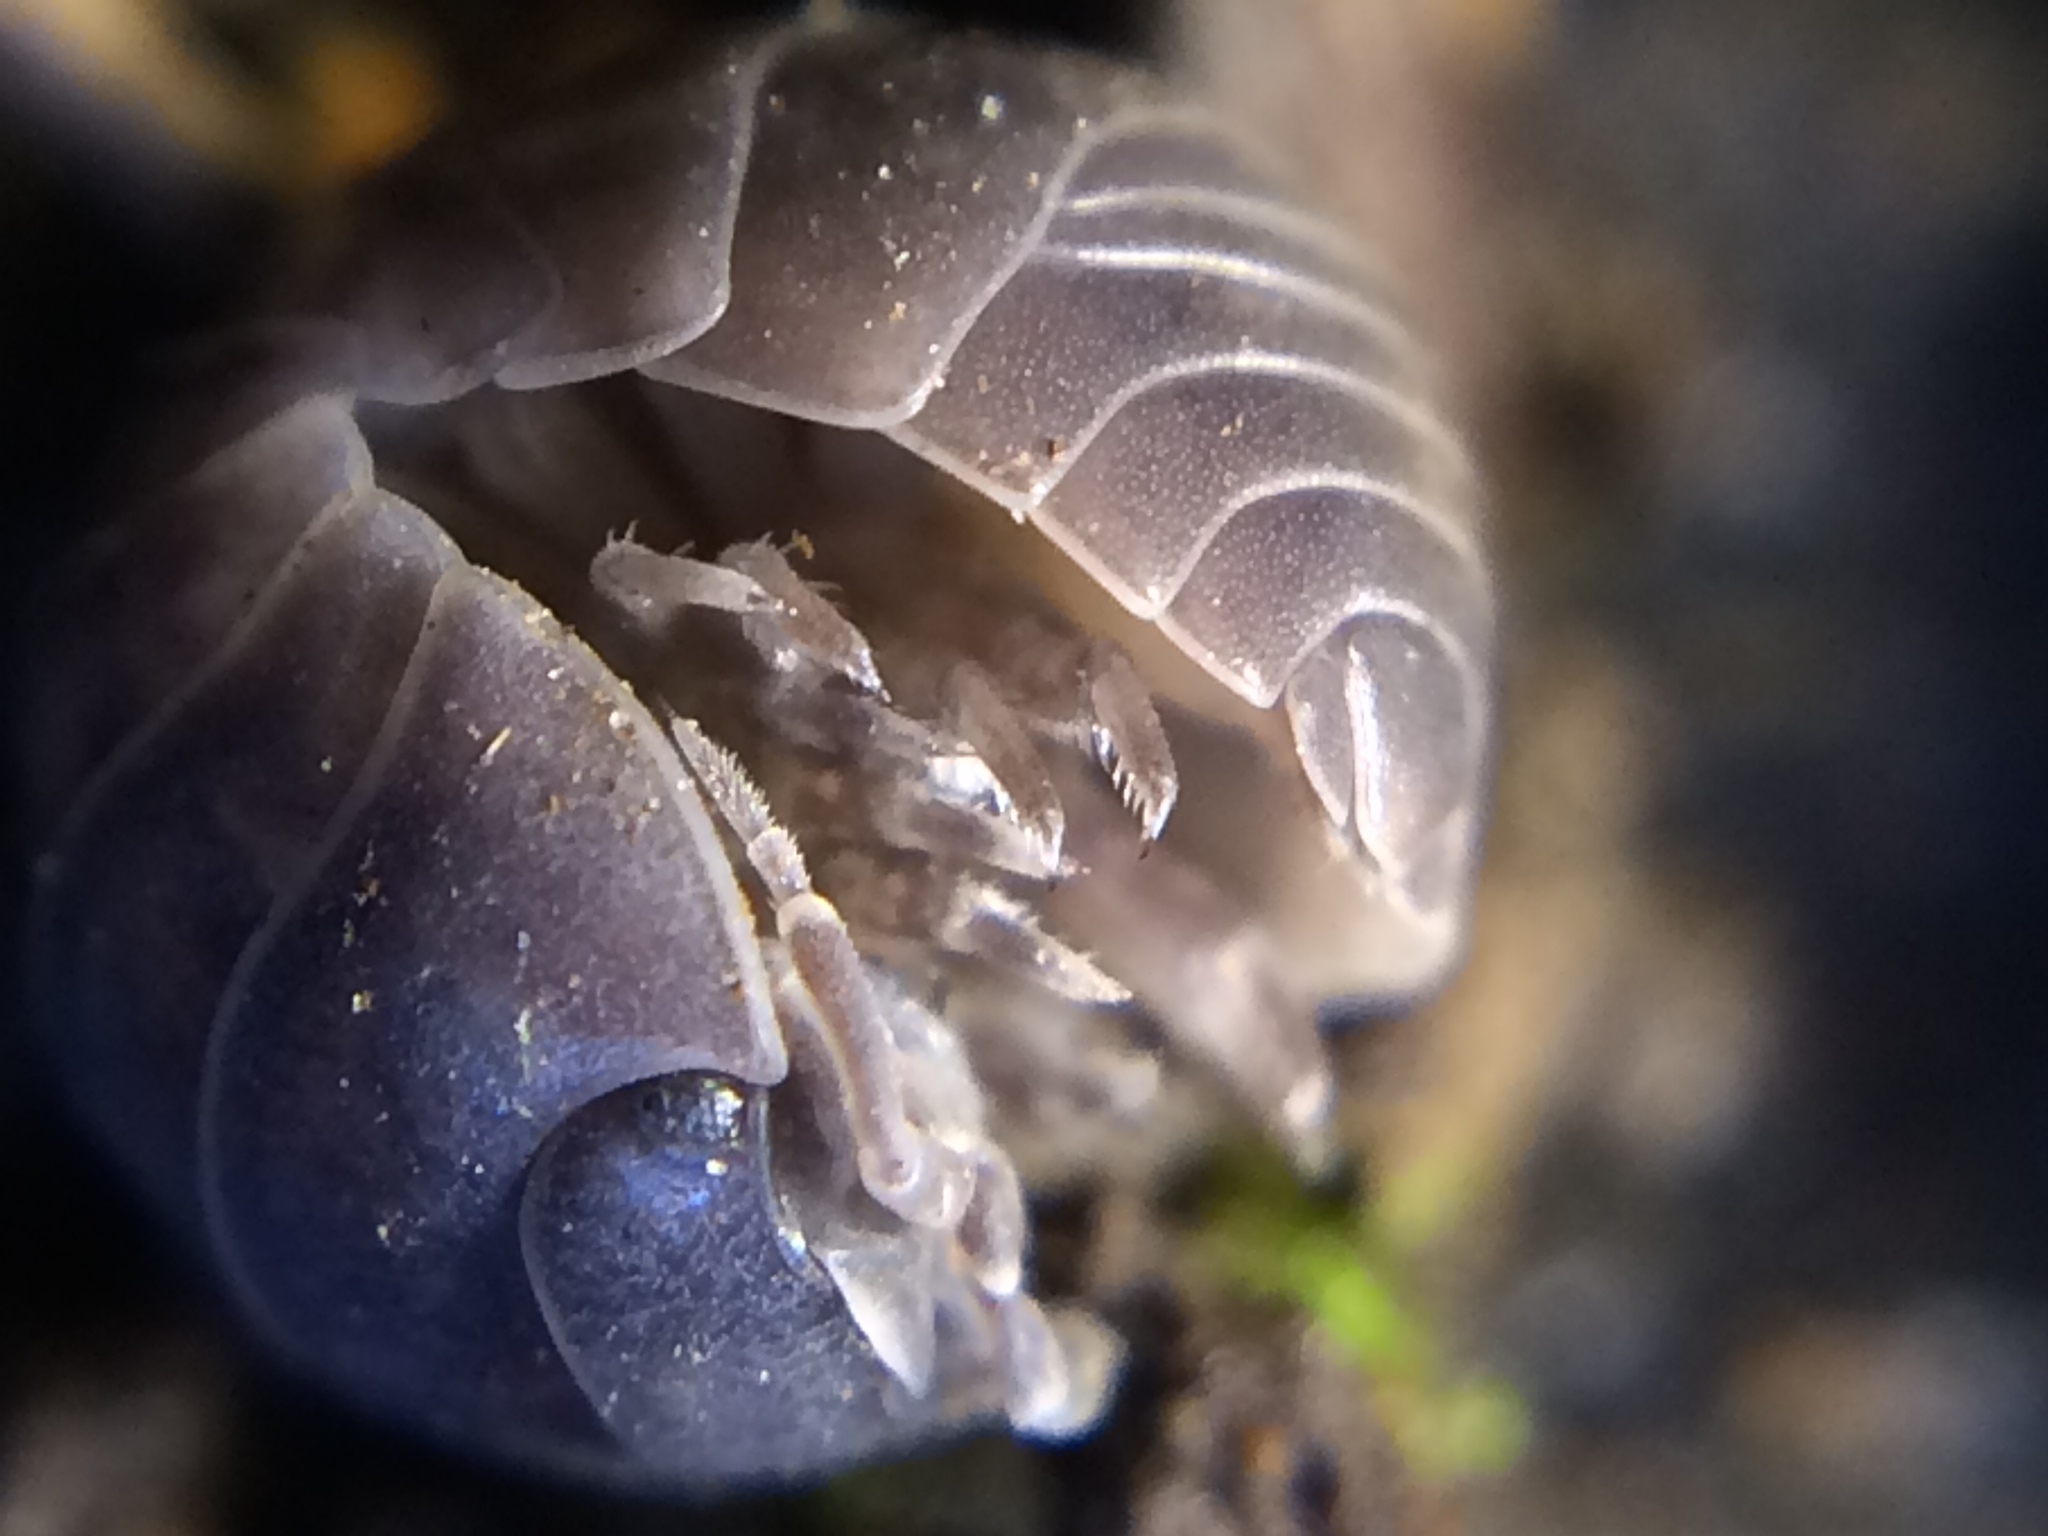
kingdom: Animalia
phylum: Arthropoda
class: Malacostraca
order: Isopoda
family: Armadillidiidae
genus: Armadillidium
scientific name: Armadillidium vulgare
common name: Common pill woodlouse
